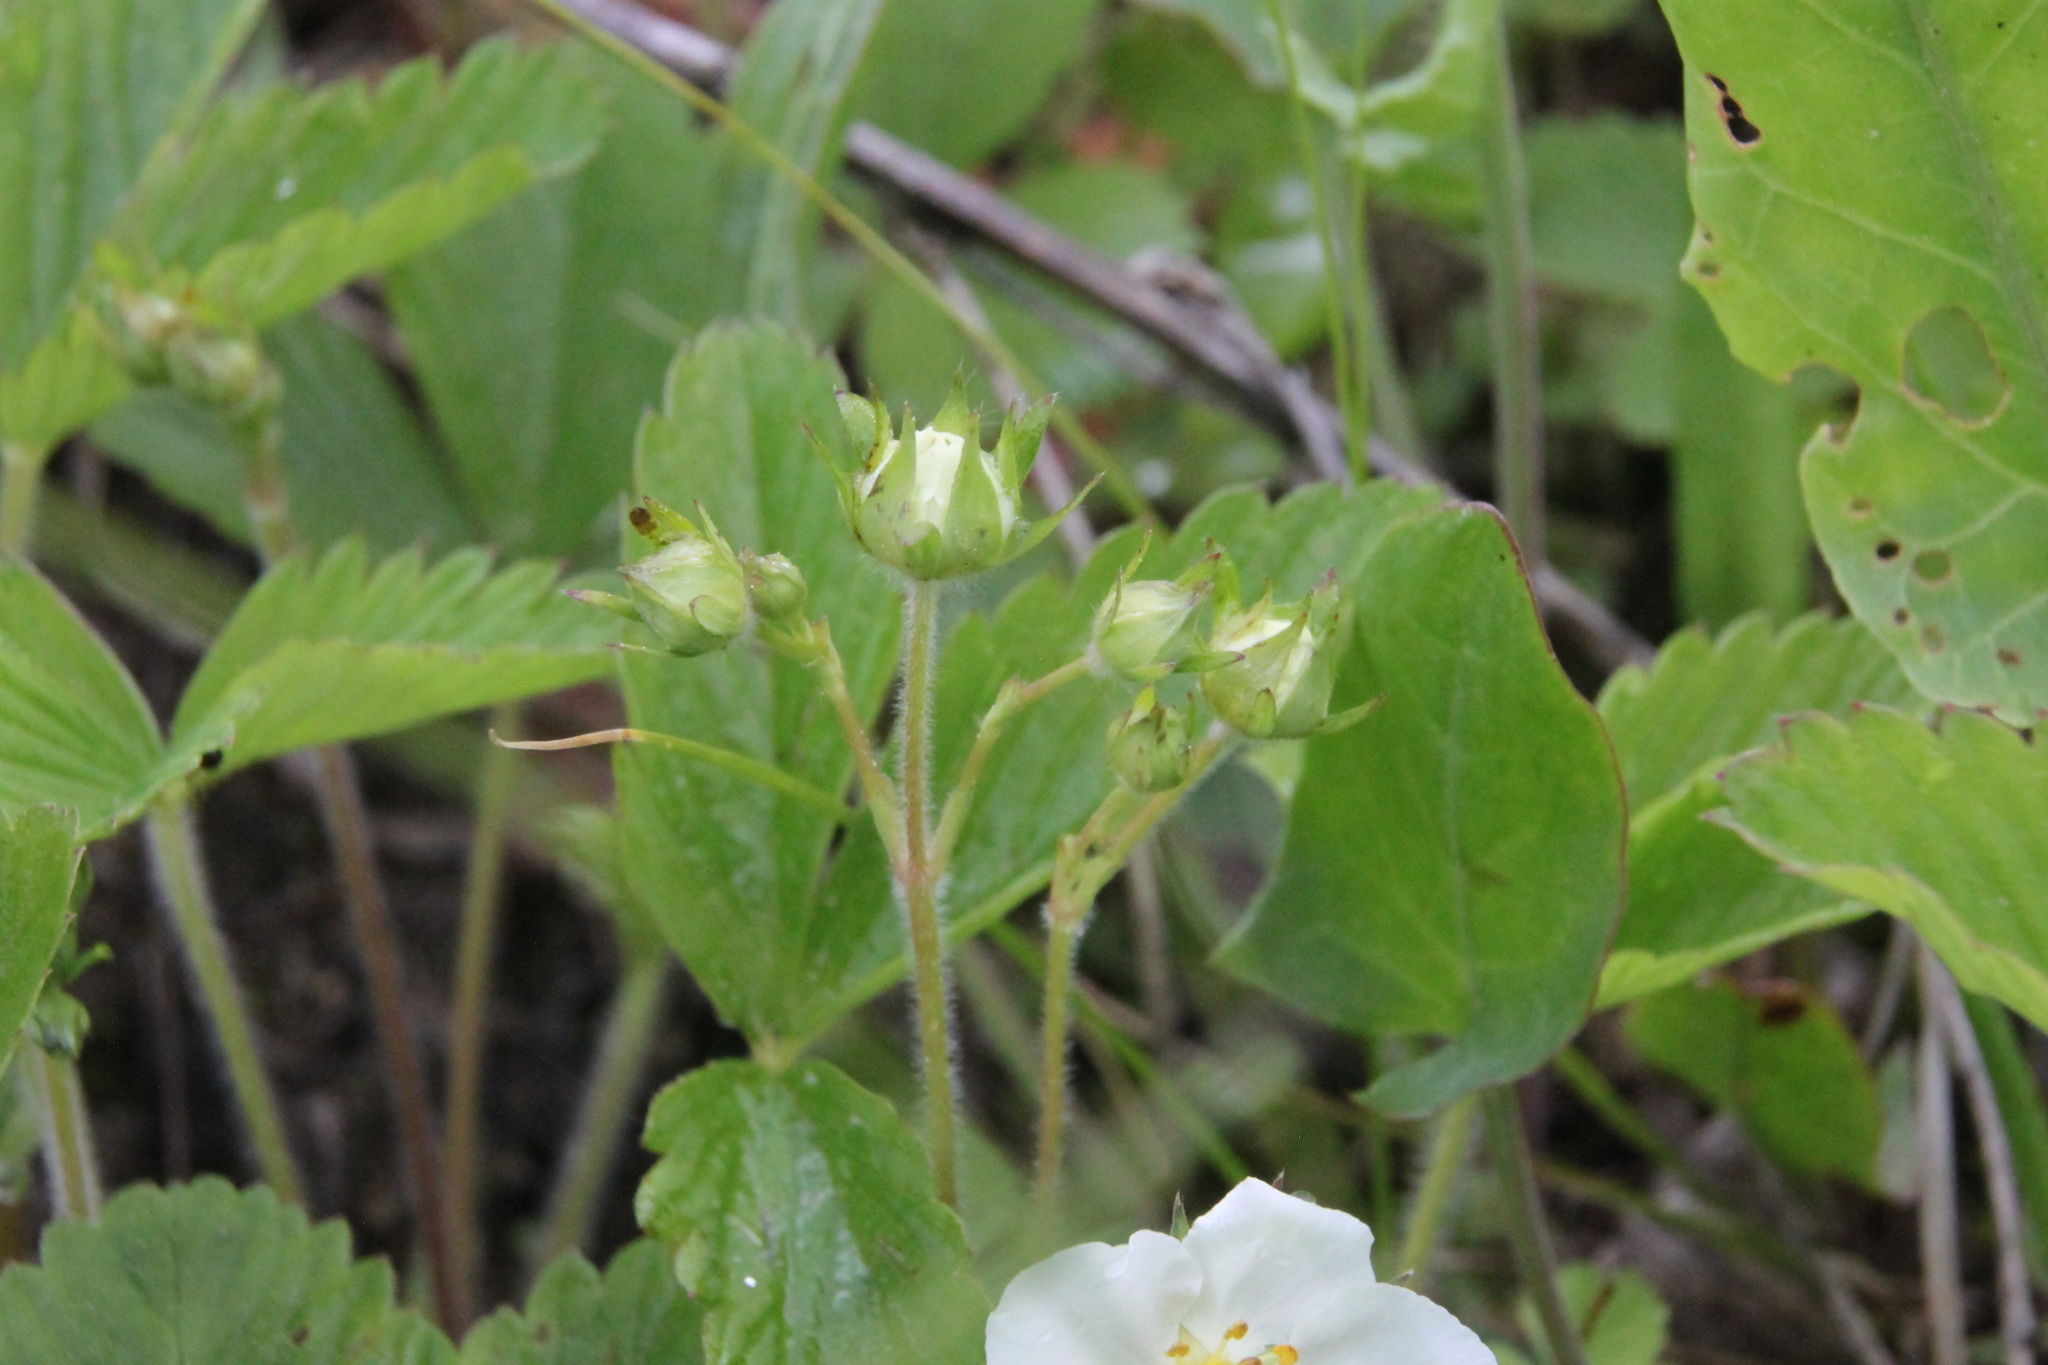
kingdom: Plantae
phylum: Tracheophyta
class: Magnoliopsida
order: Rosales
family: Rosaceae
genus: Fragaria
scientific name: Fragaria viridis
